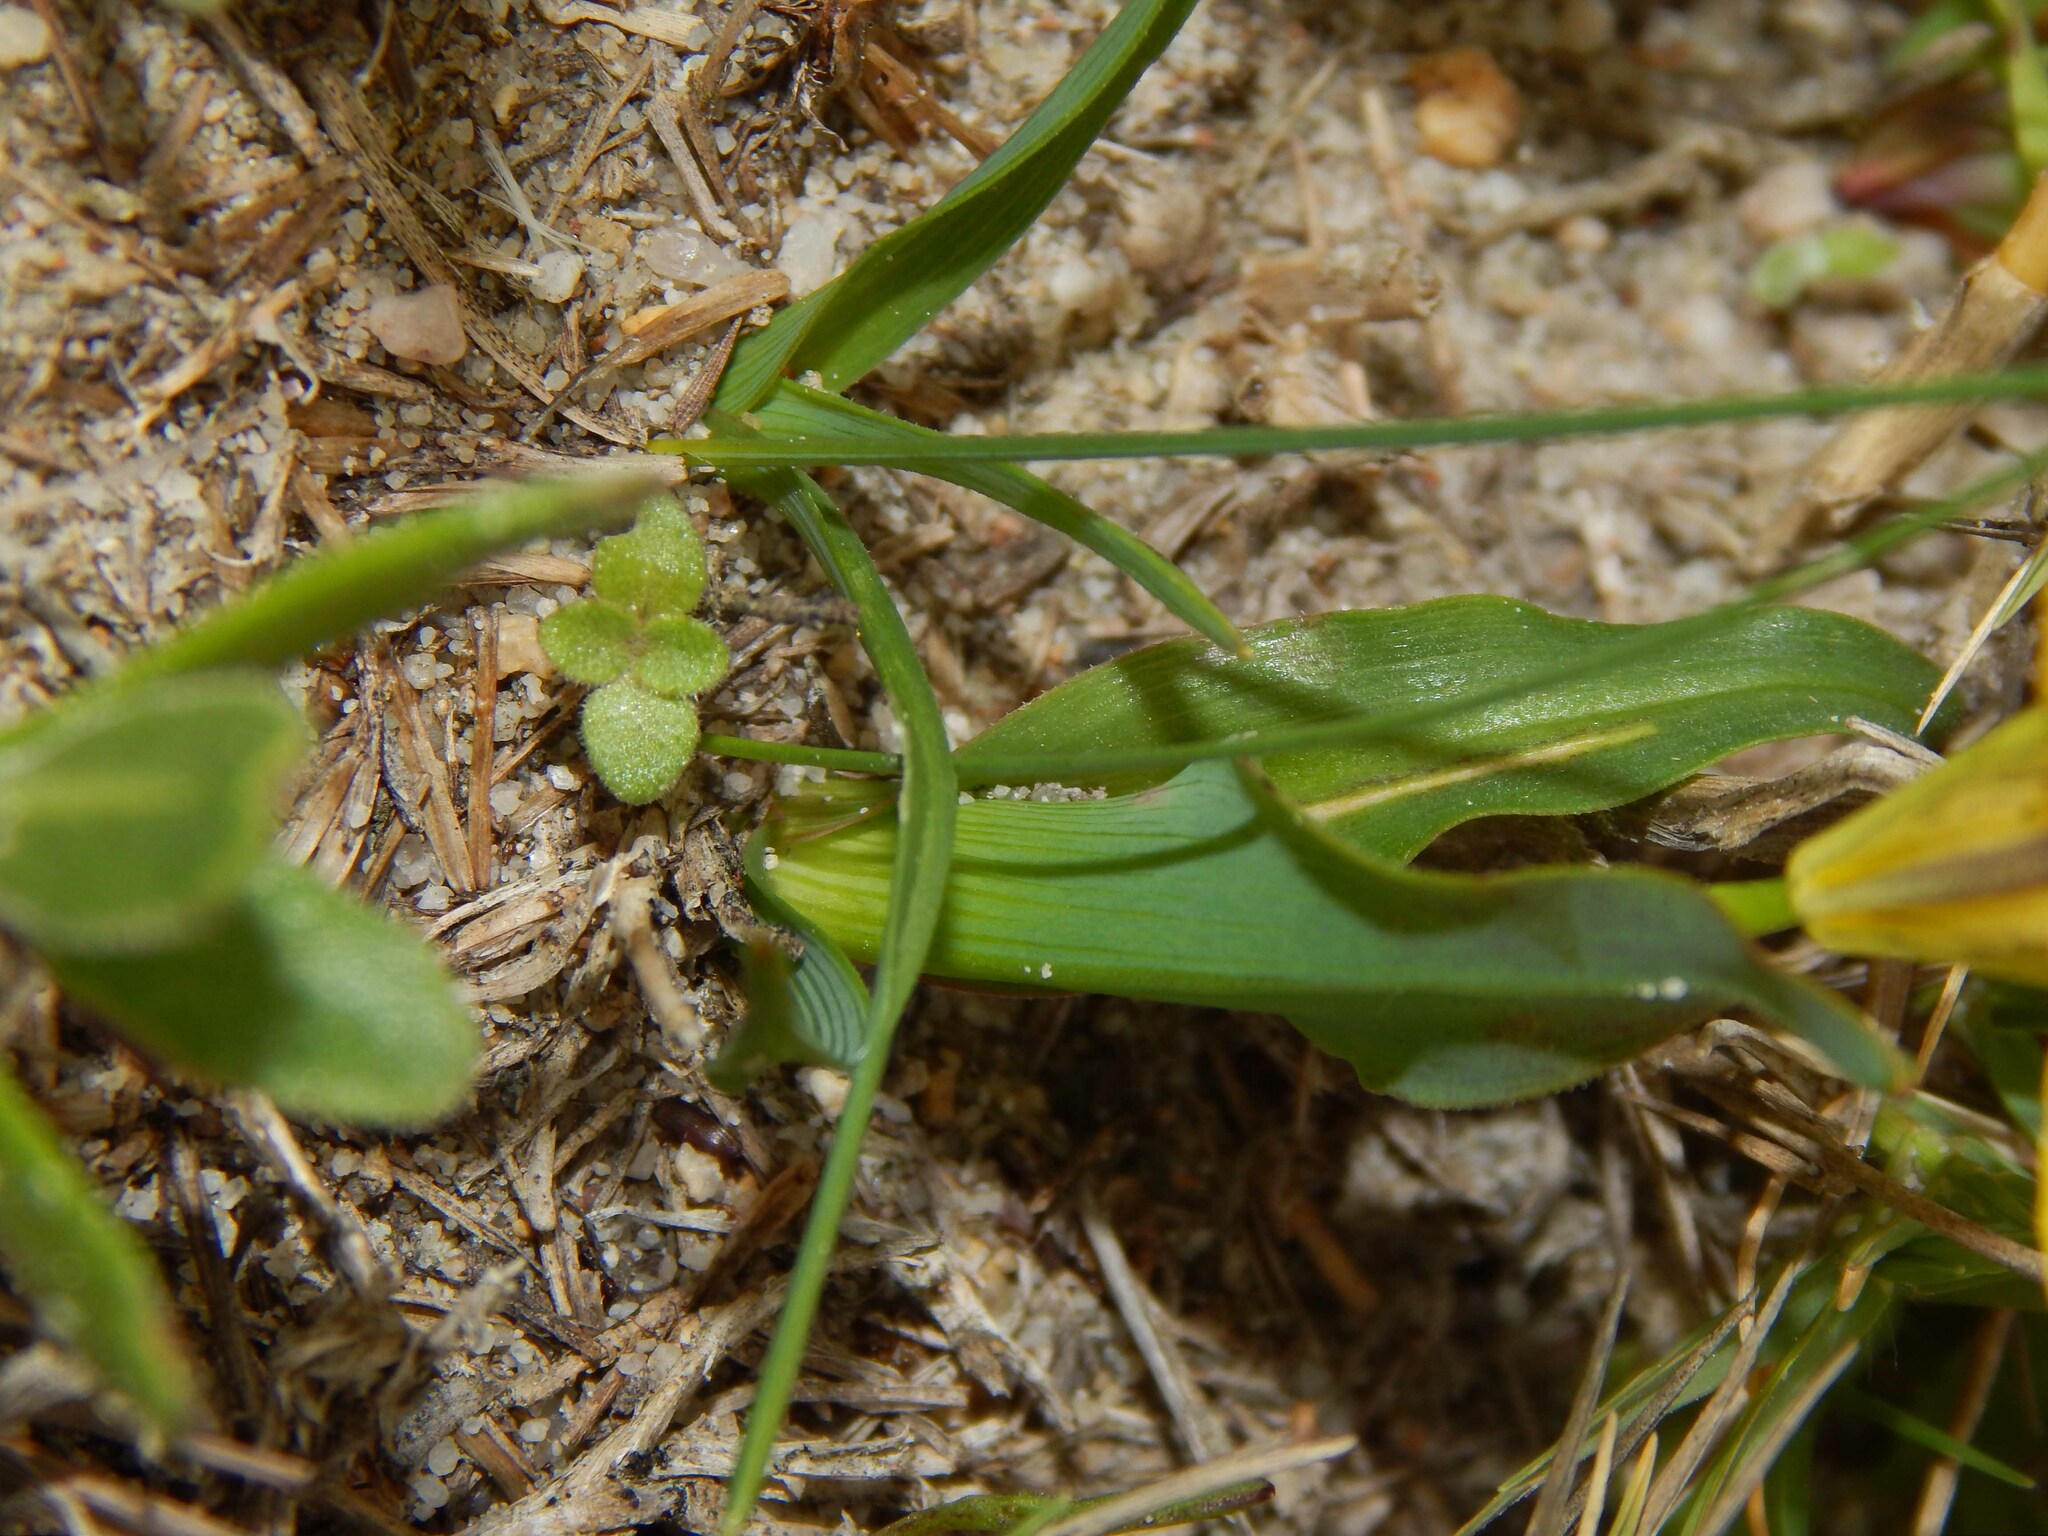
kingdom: Plantae
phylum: Tracheophyta
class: Liliopsida
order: Asparagales
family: Iridaceae
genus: Moraea
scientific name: Moraea tricolor
